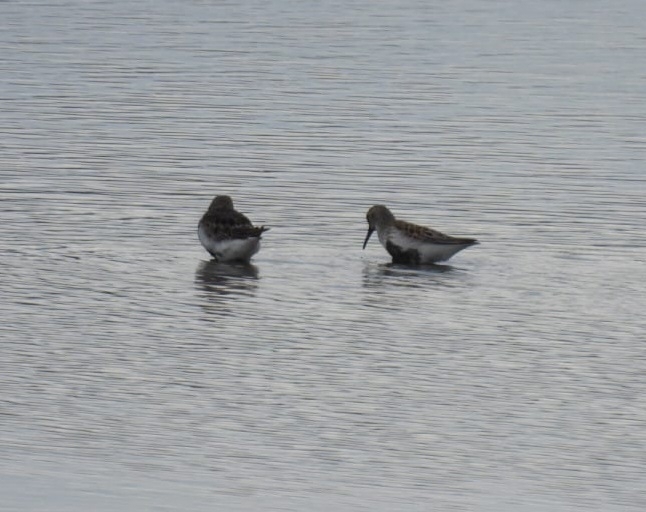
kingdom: Animalia
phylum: Chordata
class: Aves
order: Charadriiformes
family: Scolopacidae
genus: Calidris
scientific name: Calidris alpina
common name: Dunlin
